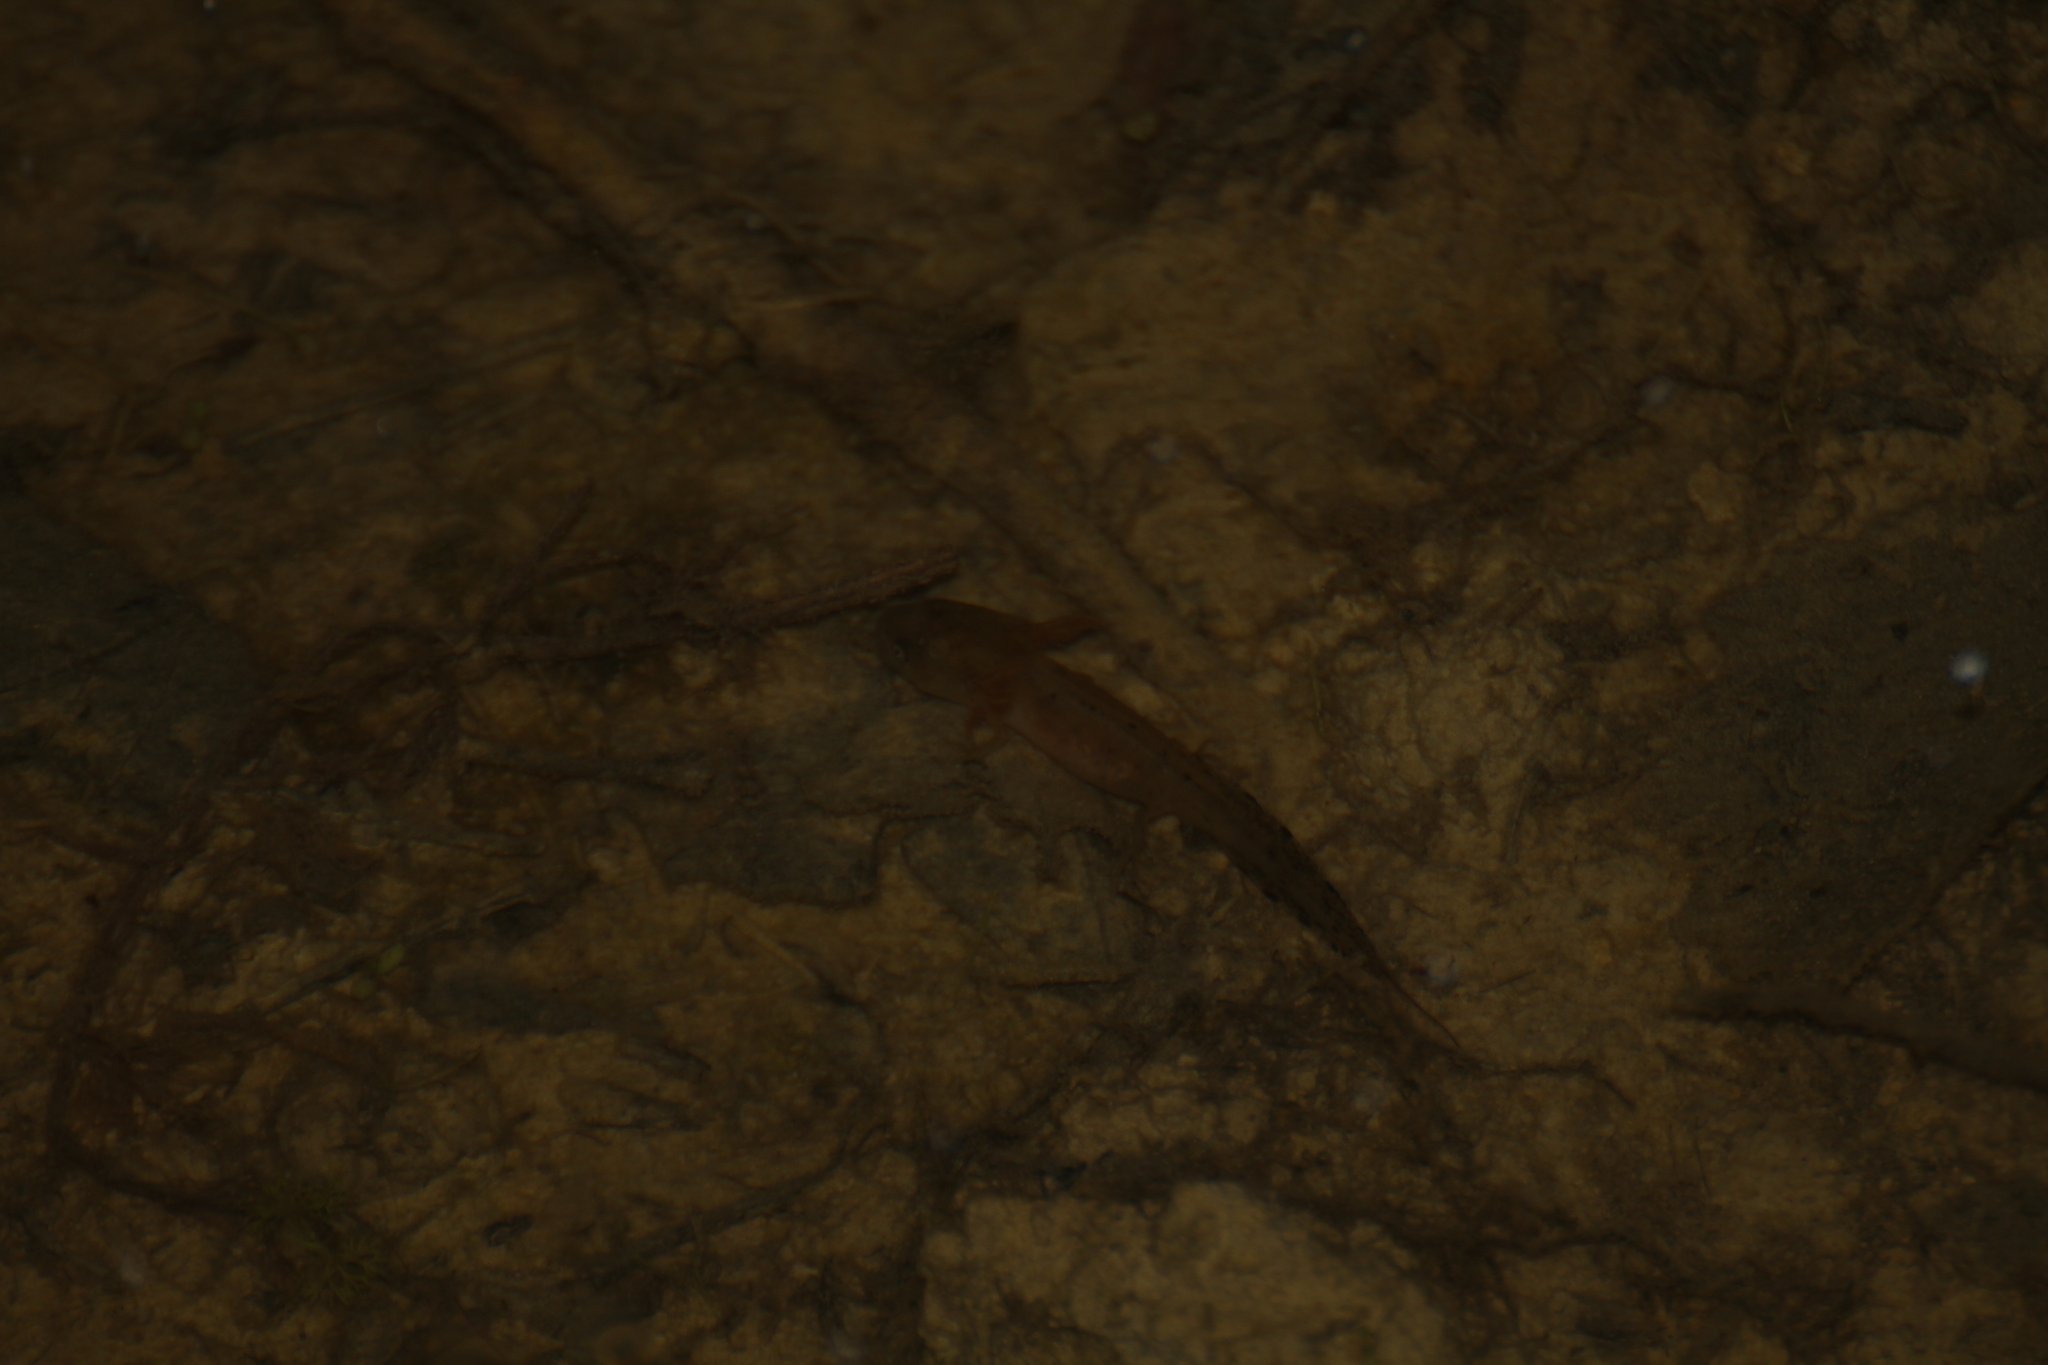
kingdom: Animalia
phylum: Chordata
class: Amphibia
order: Caudata
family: Salamandridae
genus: Triturus
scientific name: Triturus cristatus
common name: Crested newt
